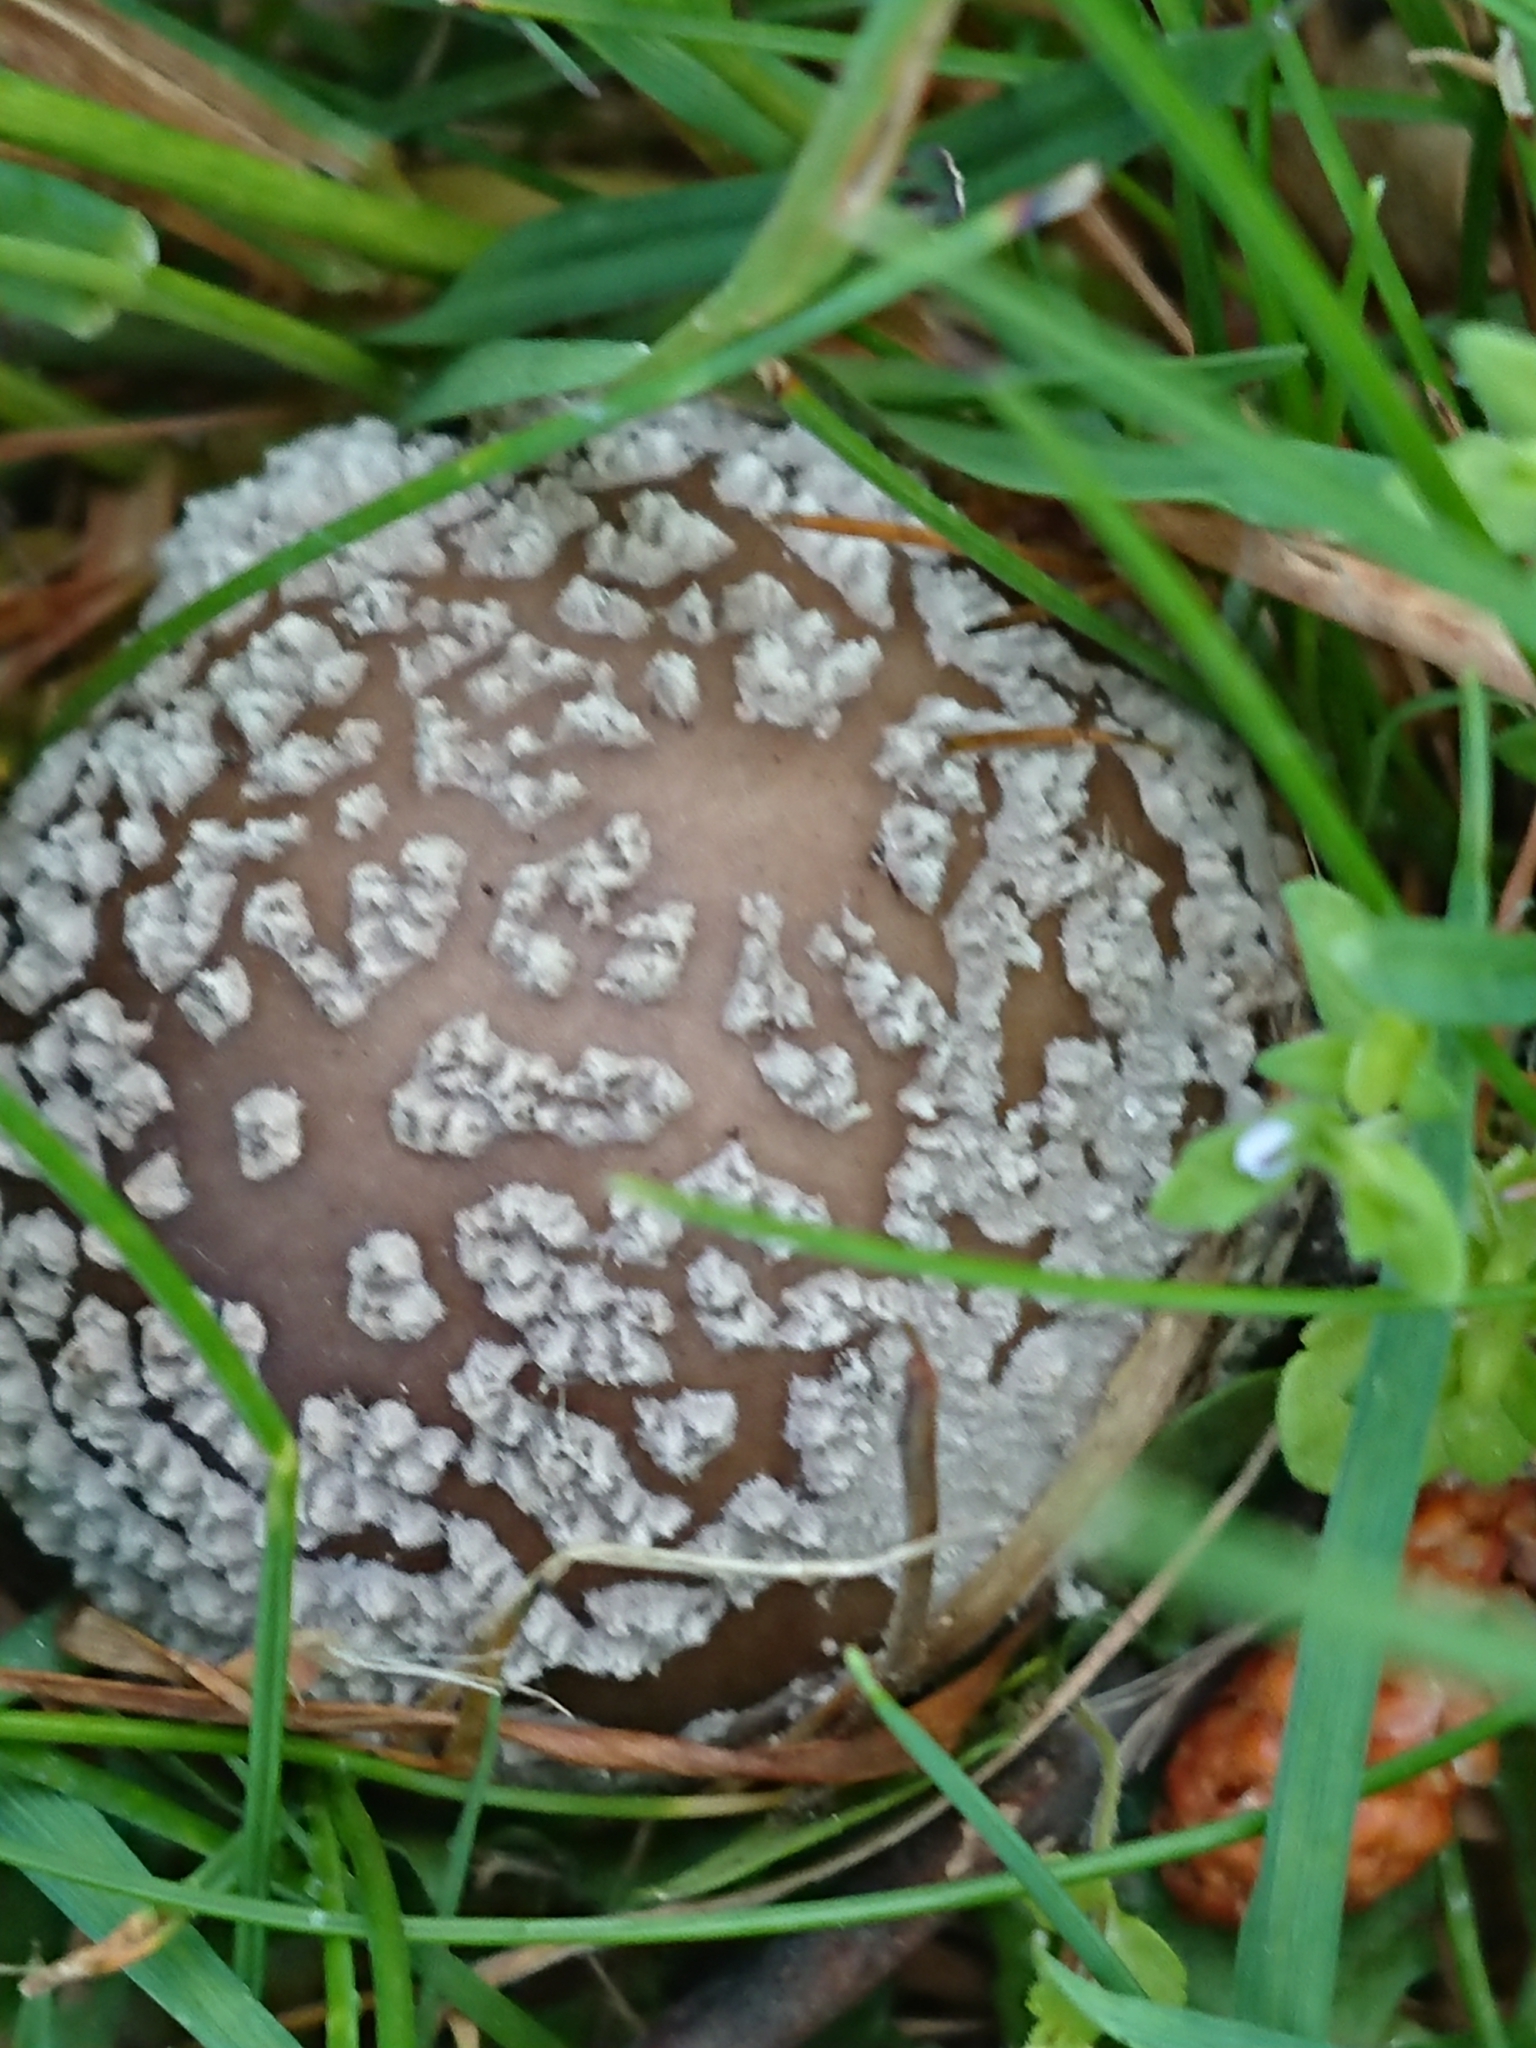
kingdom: Fungi
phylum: Basidiomycota
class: Agaricomycetes
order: Agaricales
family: Amanitaceae
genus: Amanita
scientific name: Amanita excelsa
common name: European false blusher
